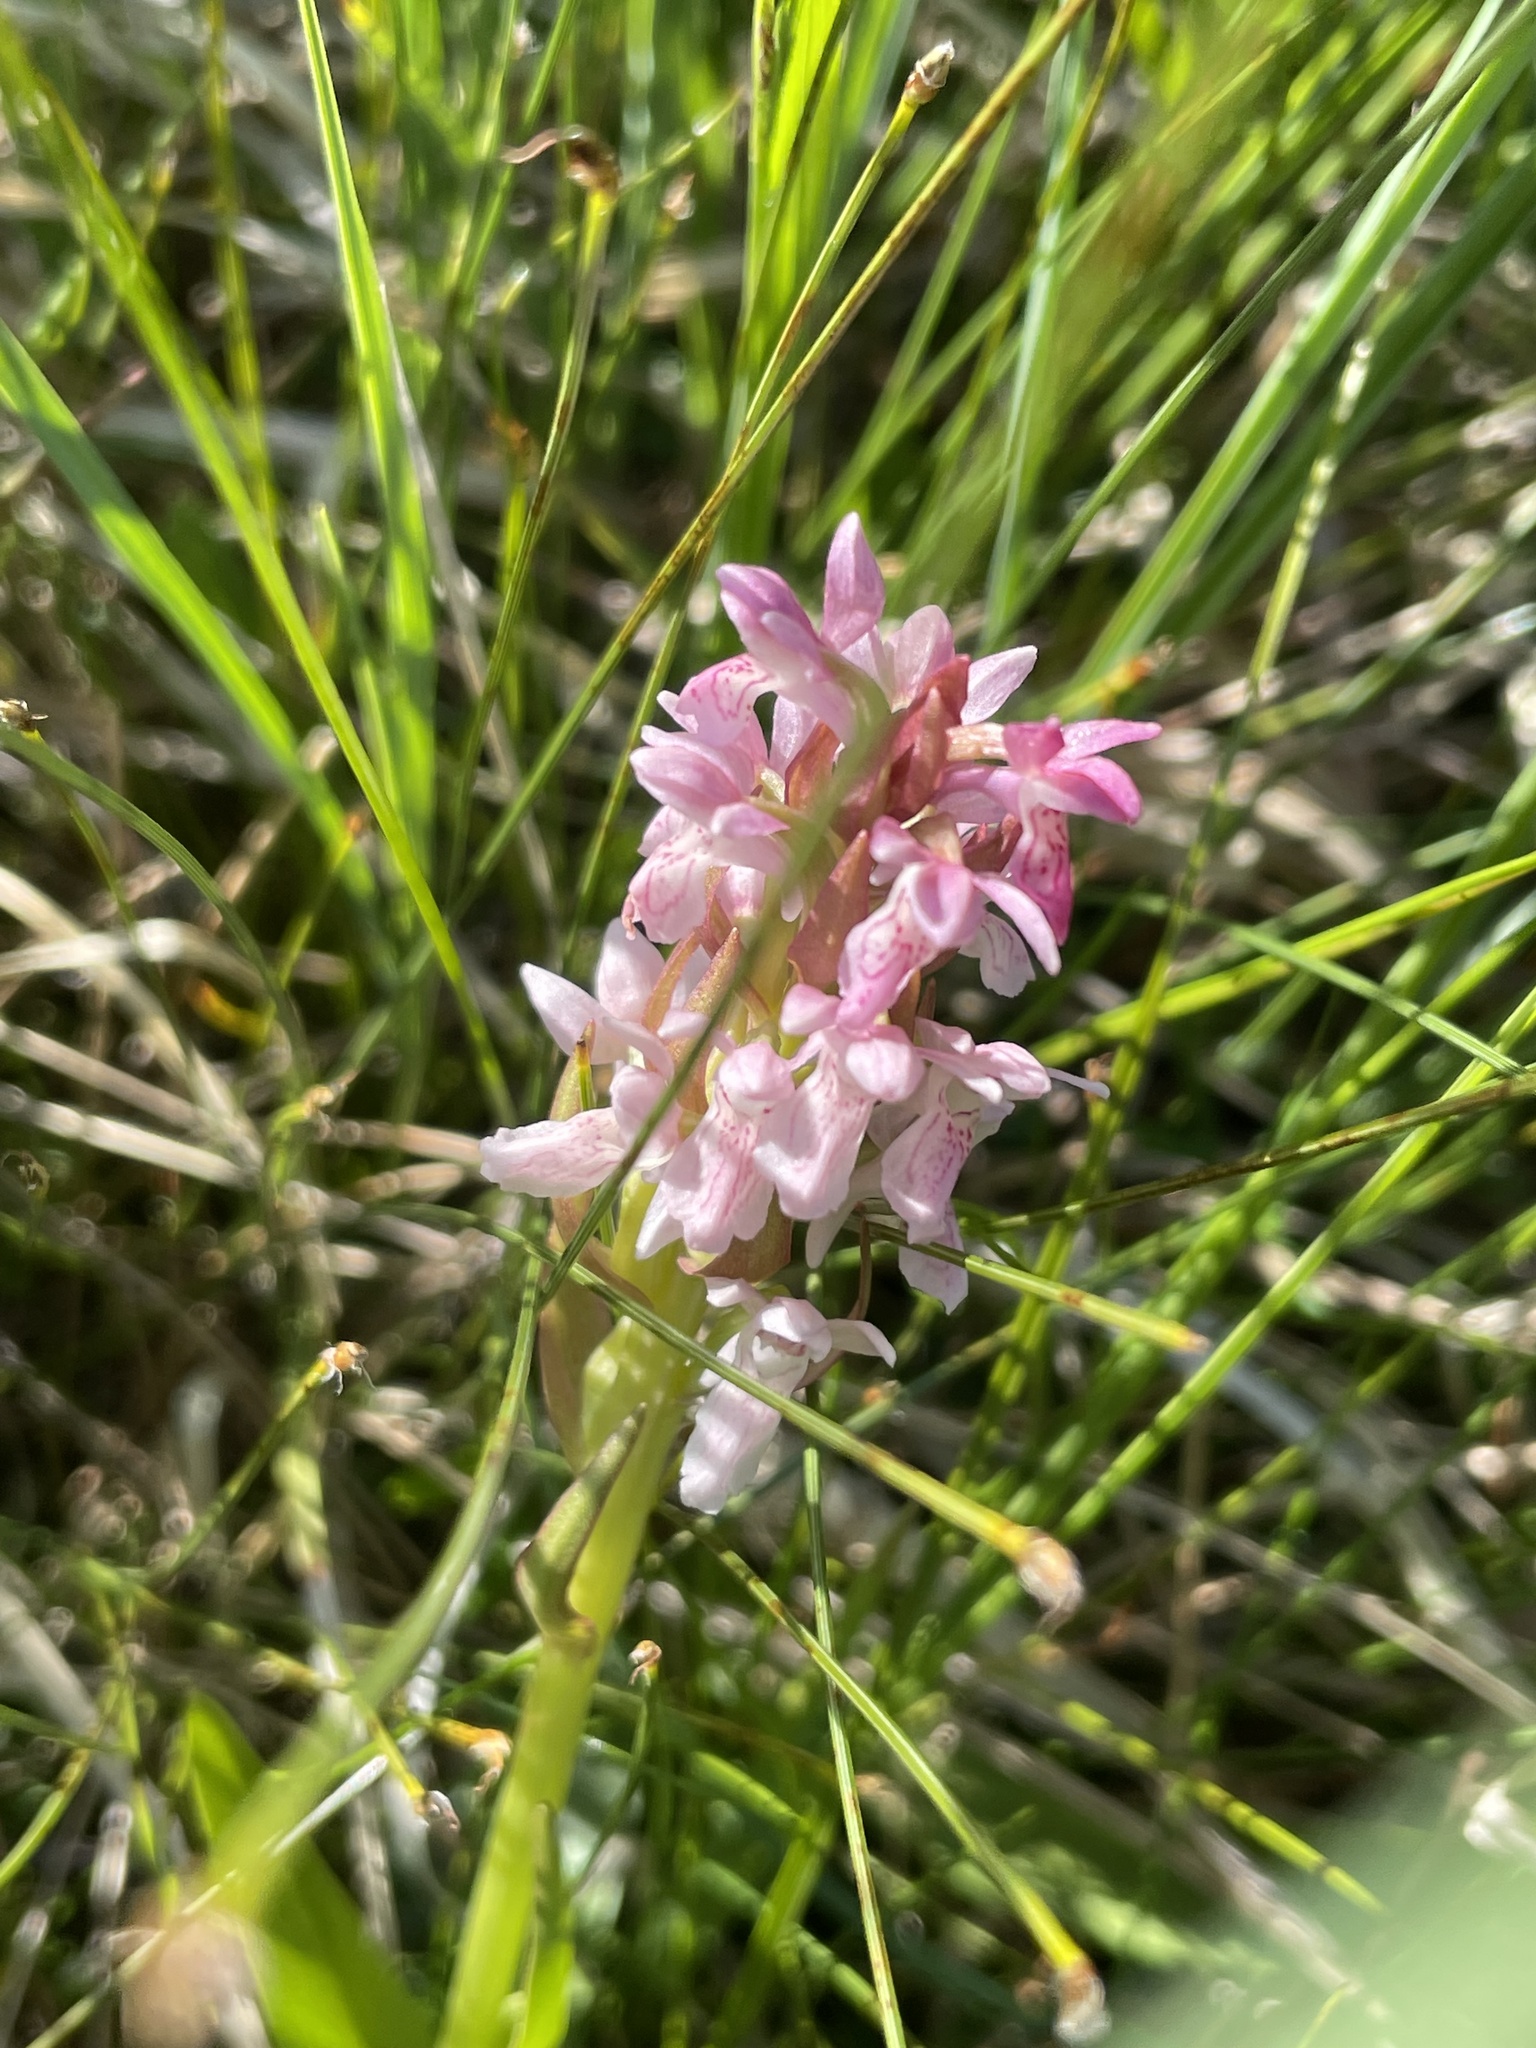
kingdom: Plantae
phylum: Tracheophyta
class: Liliopsida
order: Asparagales
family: Orchidaceae
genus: Dactylorhiza
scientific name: Dactylorhiza incarnata
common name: Early marsh-orchid
